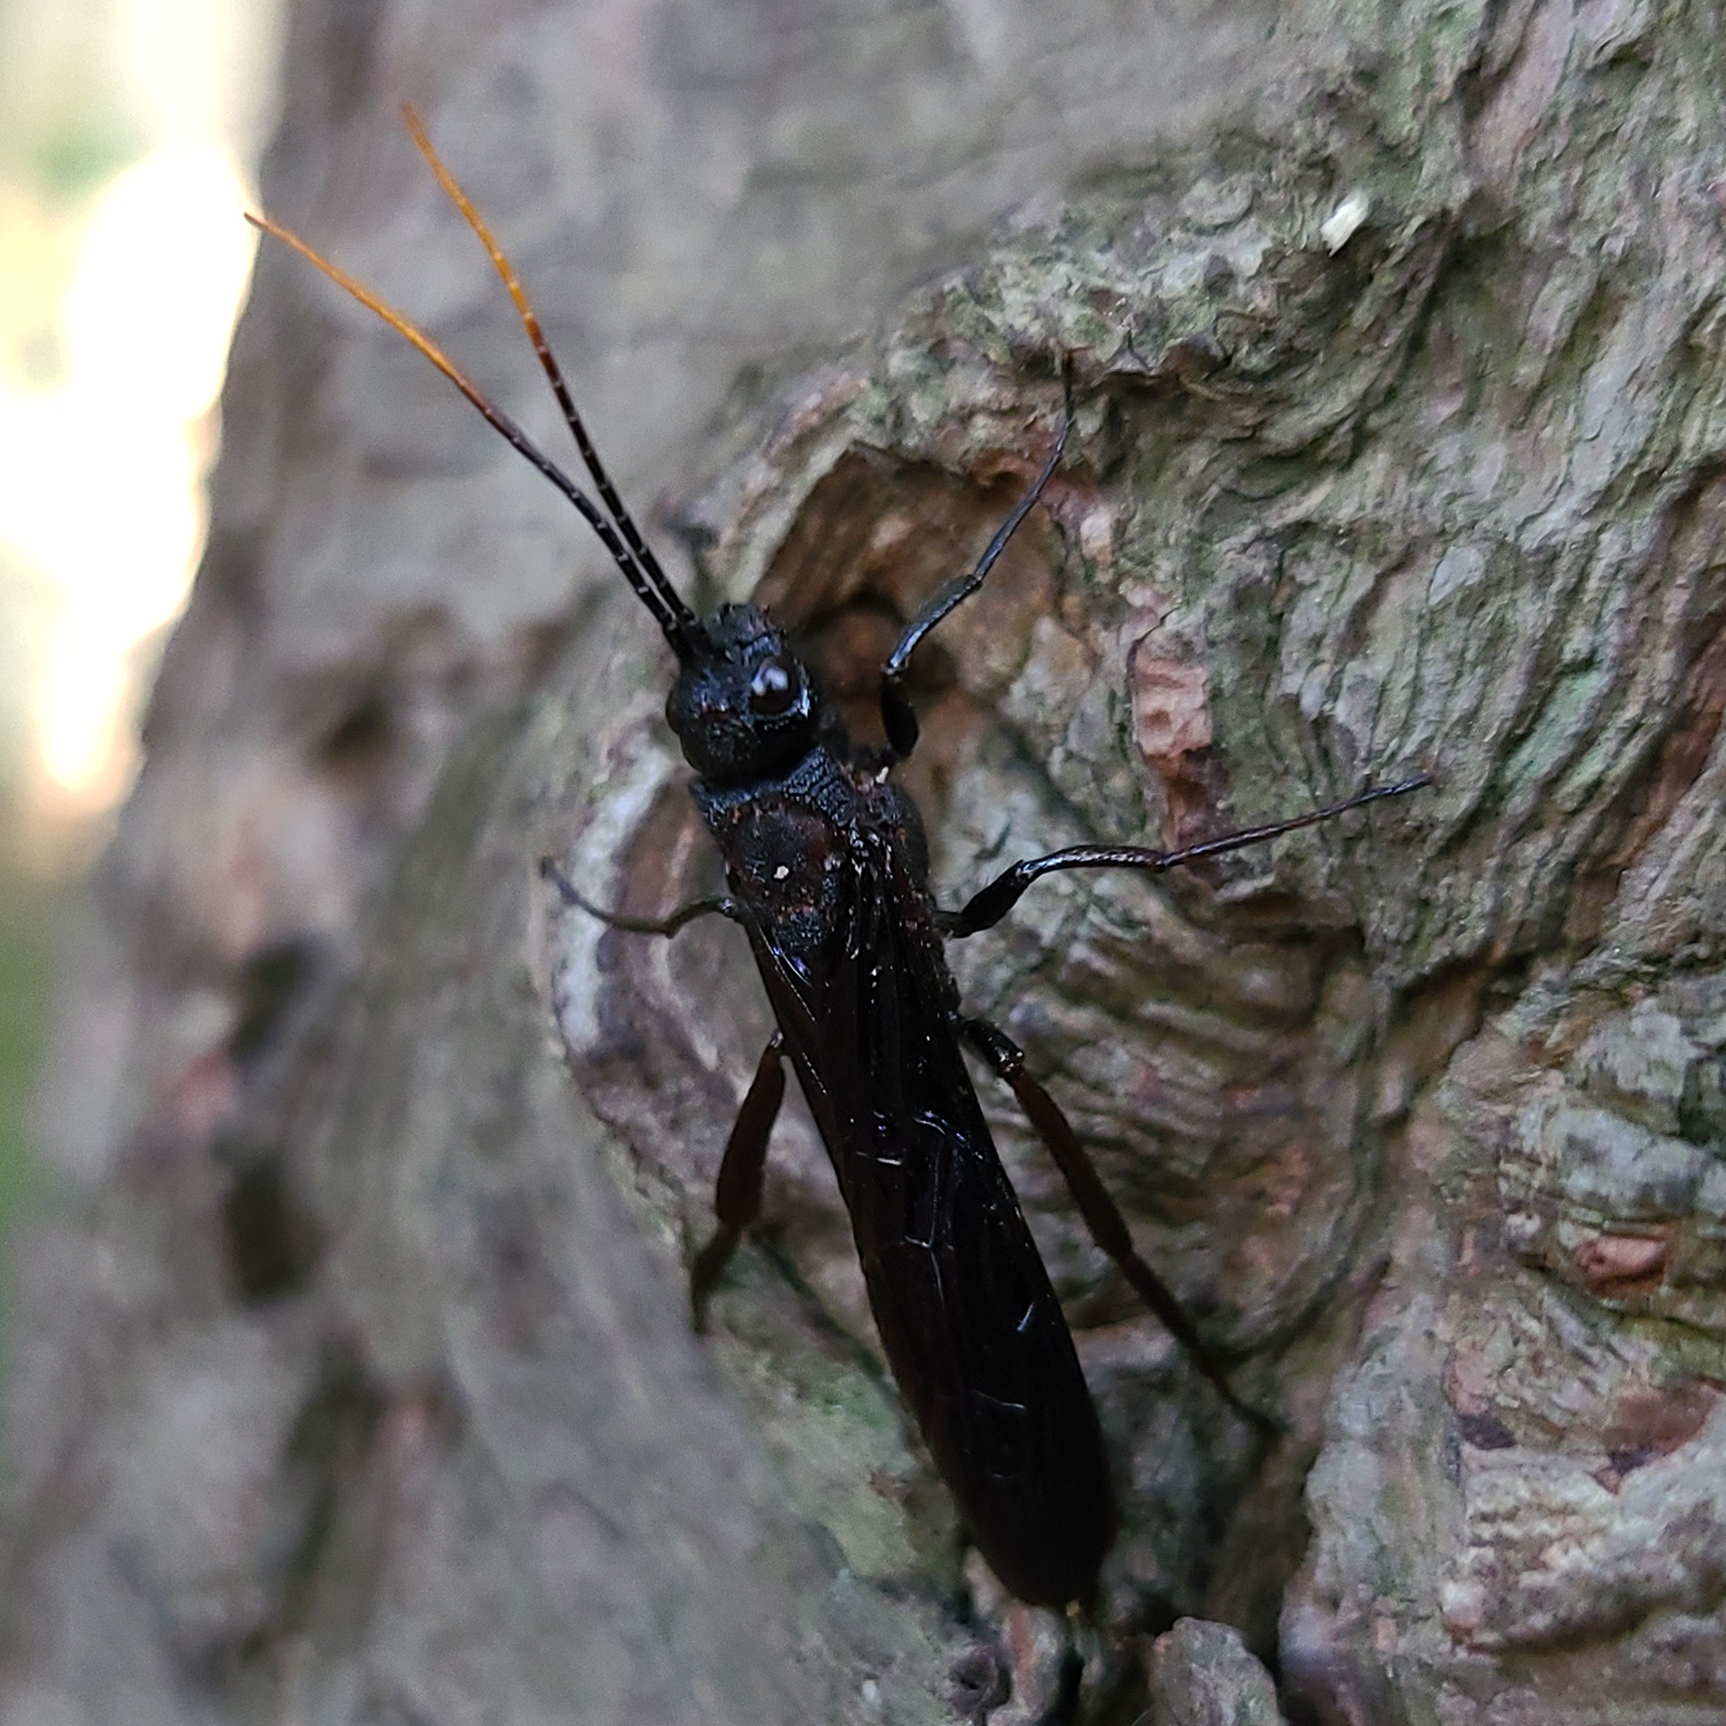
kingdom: Animalia
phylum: Arthropoda
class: Insecta
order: Hymenoptera
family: Siricidae
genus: Urocerus
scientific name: Urocerus cressoni
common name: Black-and-red horntail
